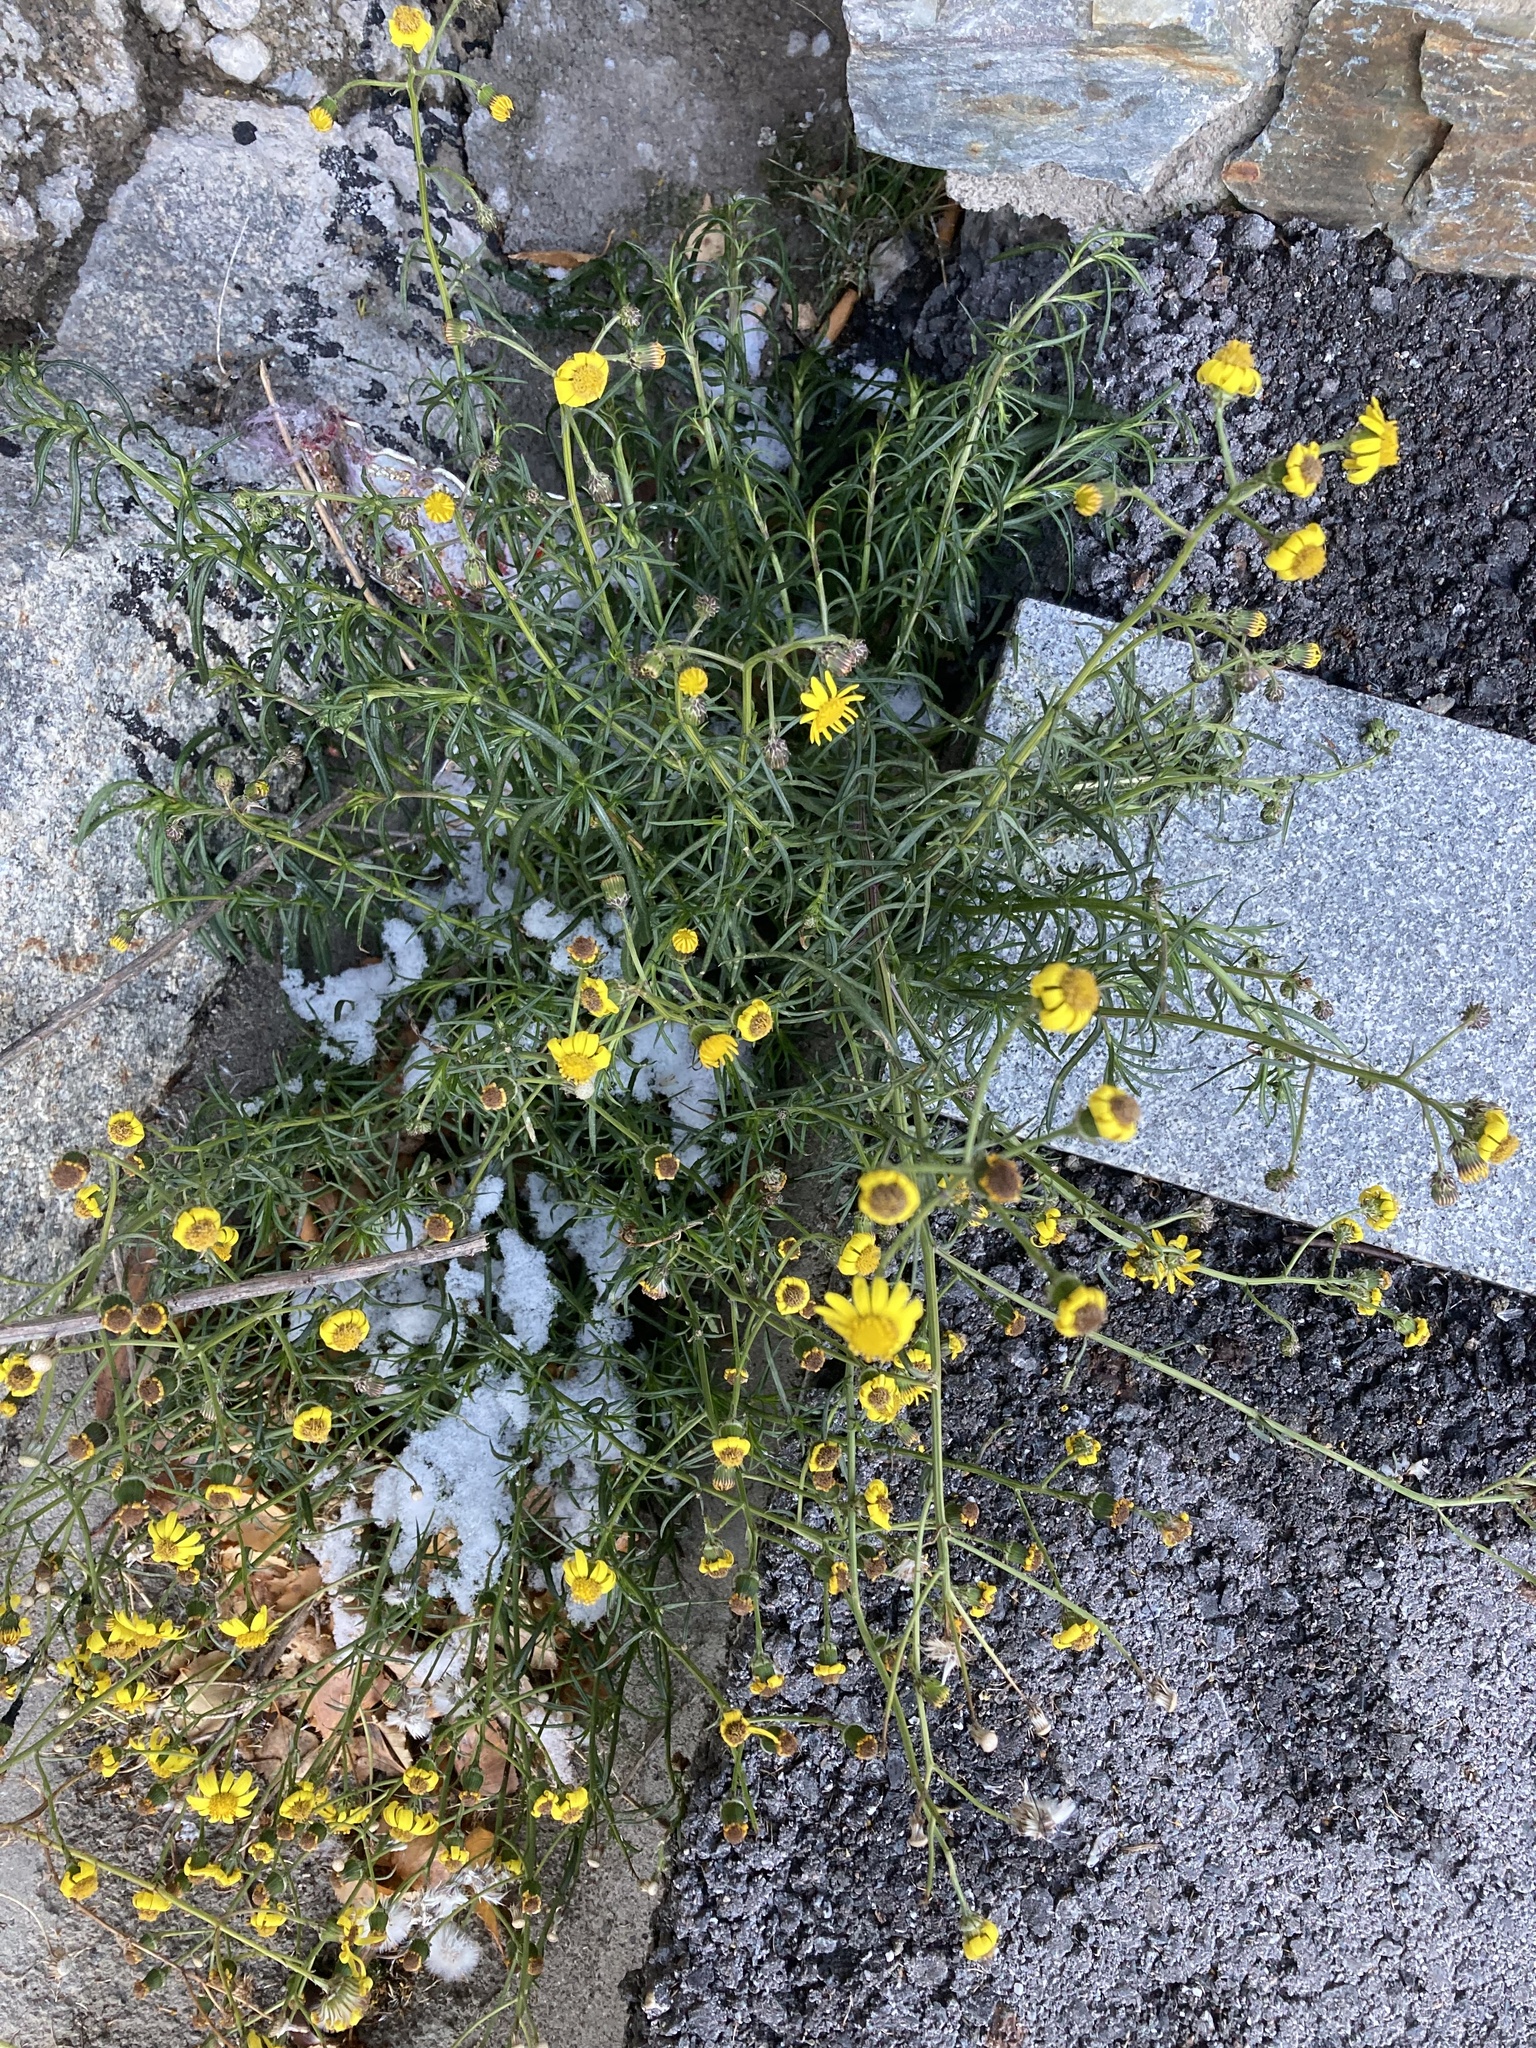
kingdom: Plantae
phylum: Tracheophyta
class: Magnoliopsida
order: Asterales
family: Asteraceae
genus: Senecio
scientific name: Senecio inaequidens
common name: Narrow-leaved ragwort
